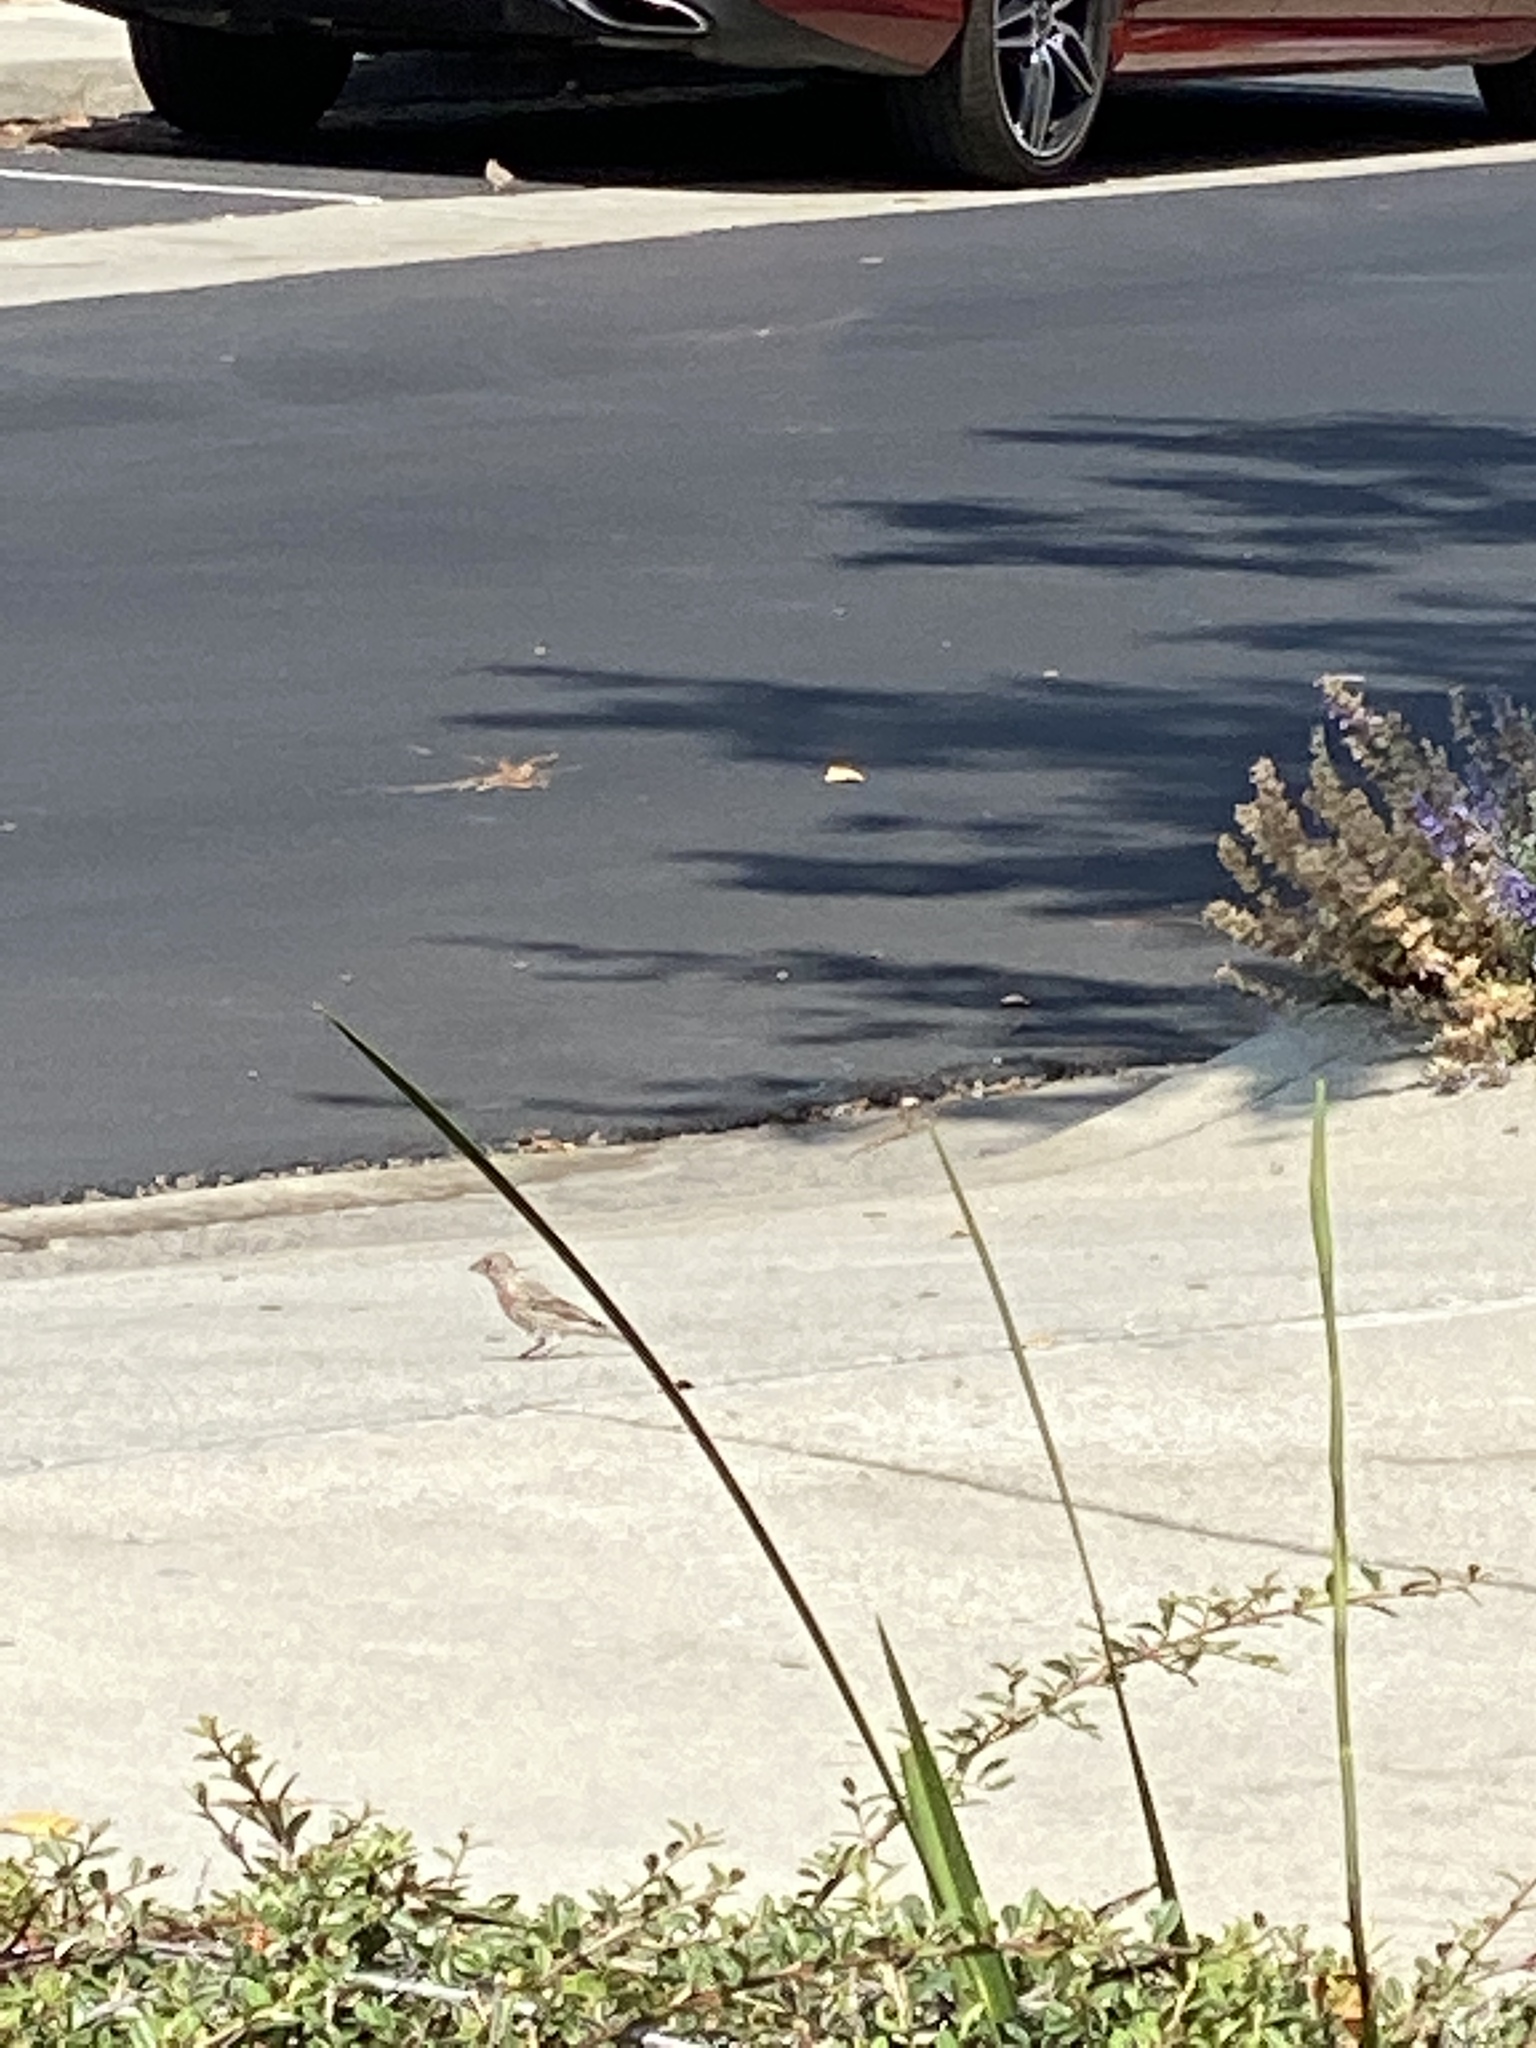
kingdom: Animalia
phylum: Chordata
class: Aves
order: Passeriformes
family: Fringillidae
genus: Haemorhous
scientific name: Haemorhous mexicanus
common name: House finch
